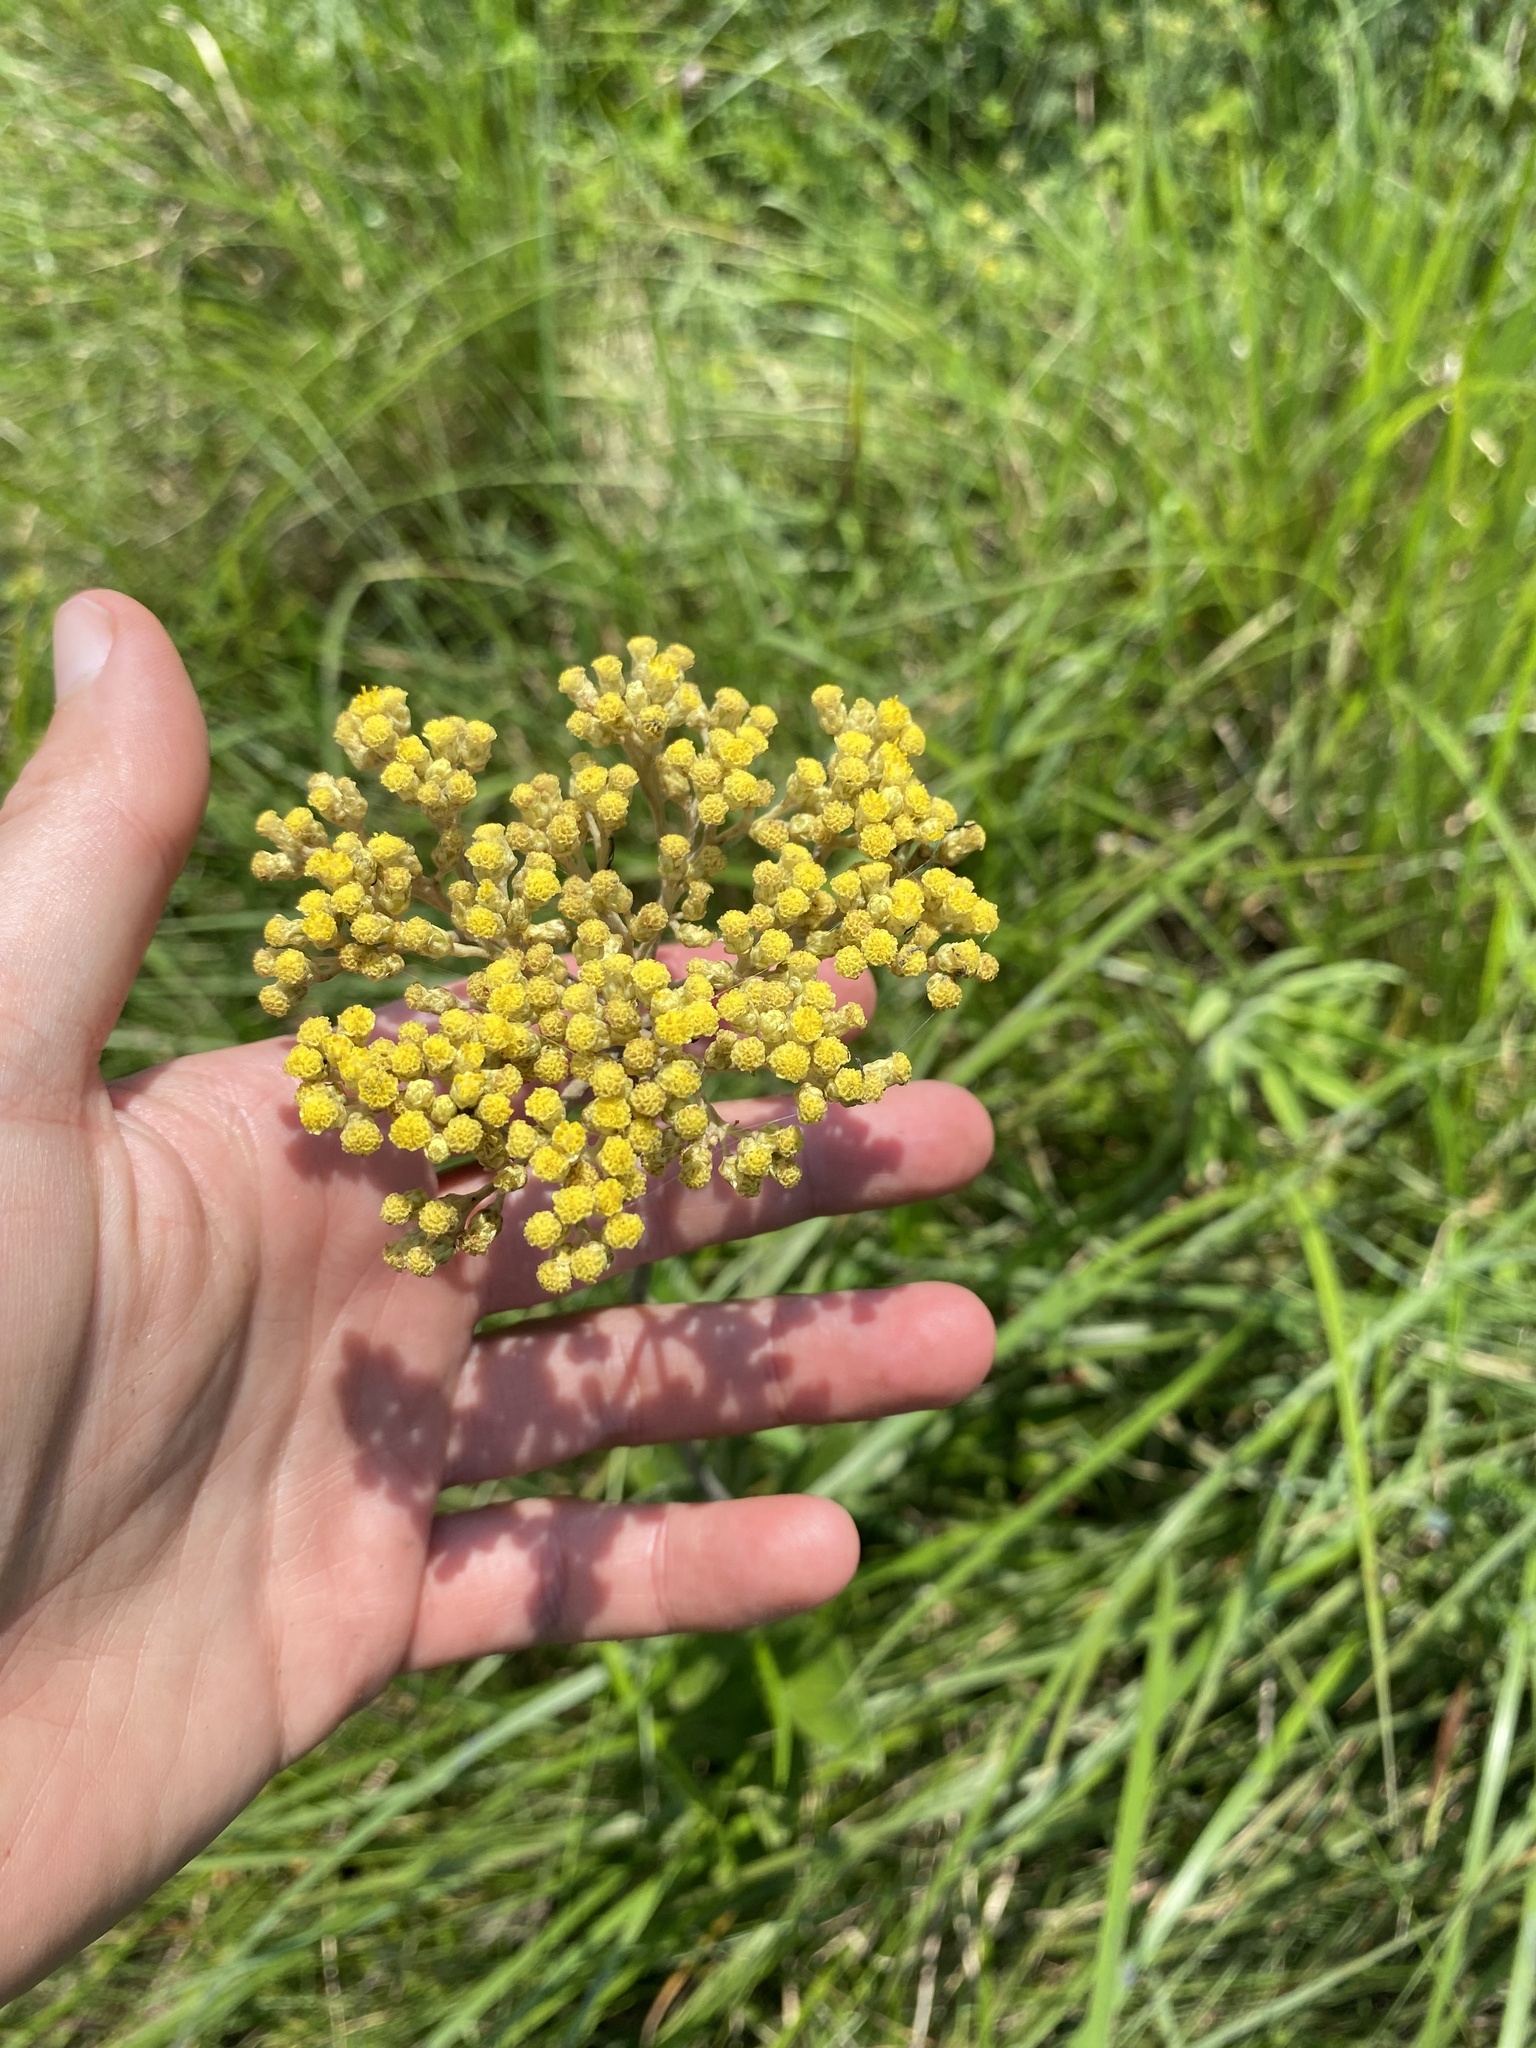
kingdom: Plantae
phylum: Tracheophyta
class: Magnoliopsida
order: Asterales
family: Asteraceae
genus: Helichrysum
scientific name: Helichrysum nudifolium
